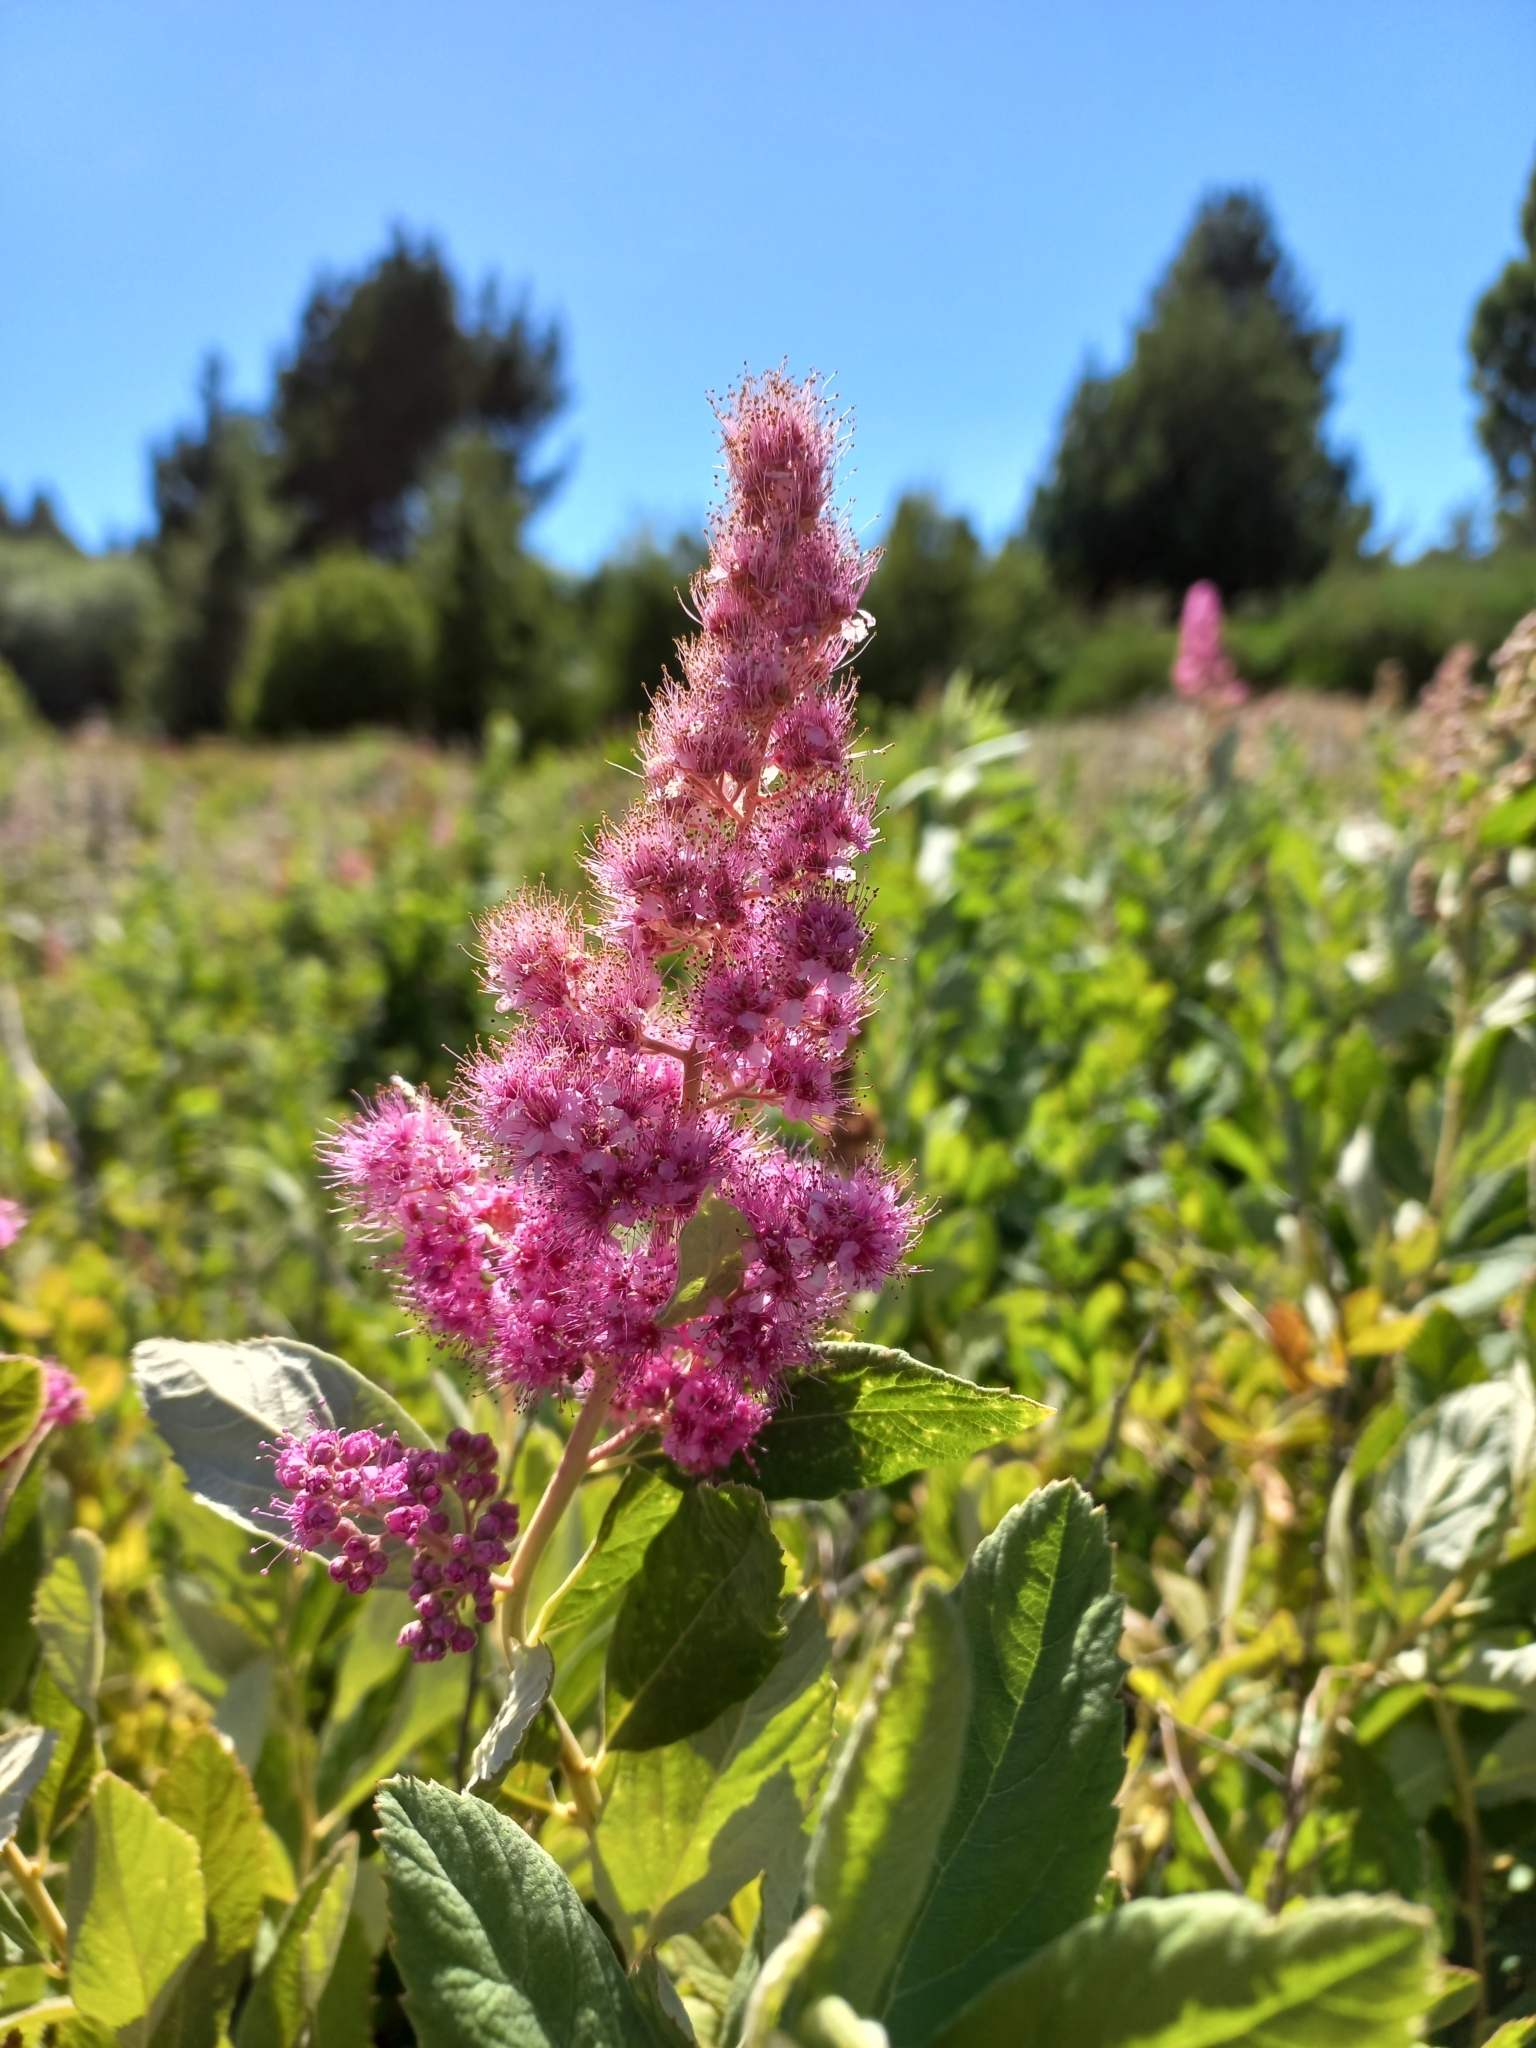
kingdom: Plantae
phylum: Tracheophyta
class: Magnoliopsida
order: Rosales
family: Rosaceae
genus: Spiraea
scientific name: Spiraea douglasii
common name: Steeplebush
